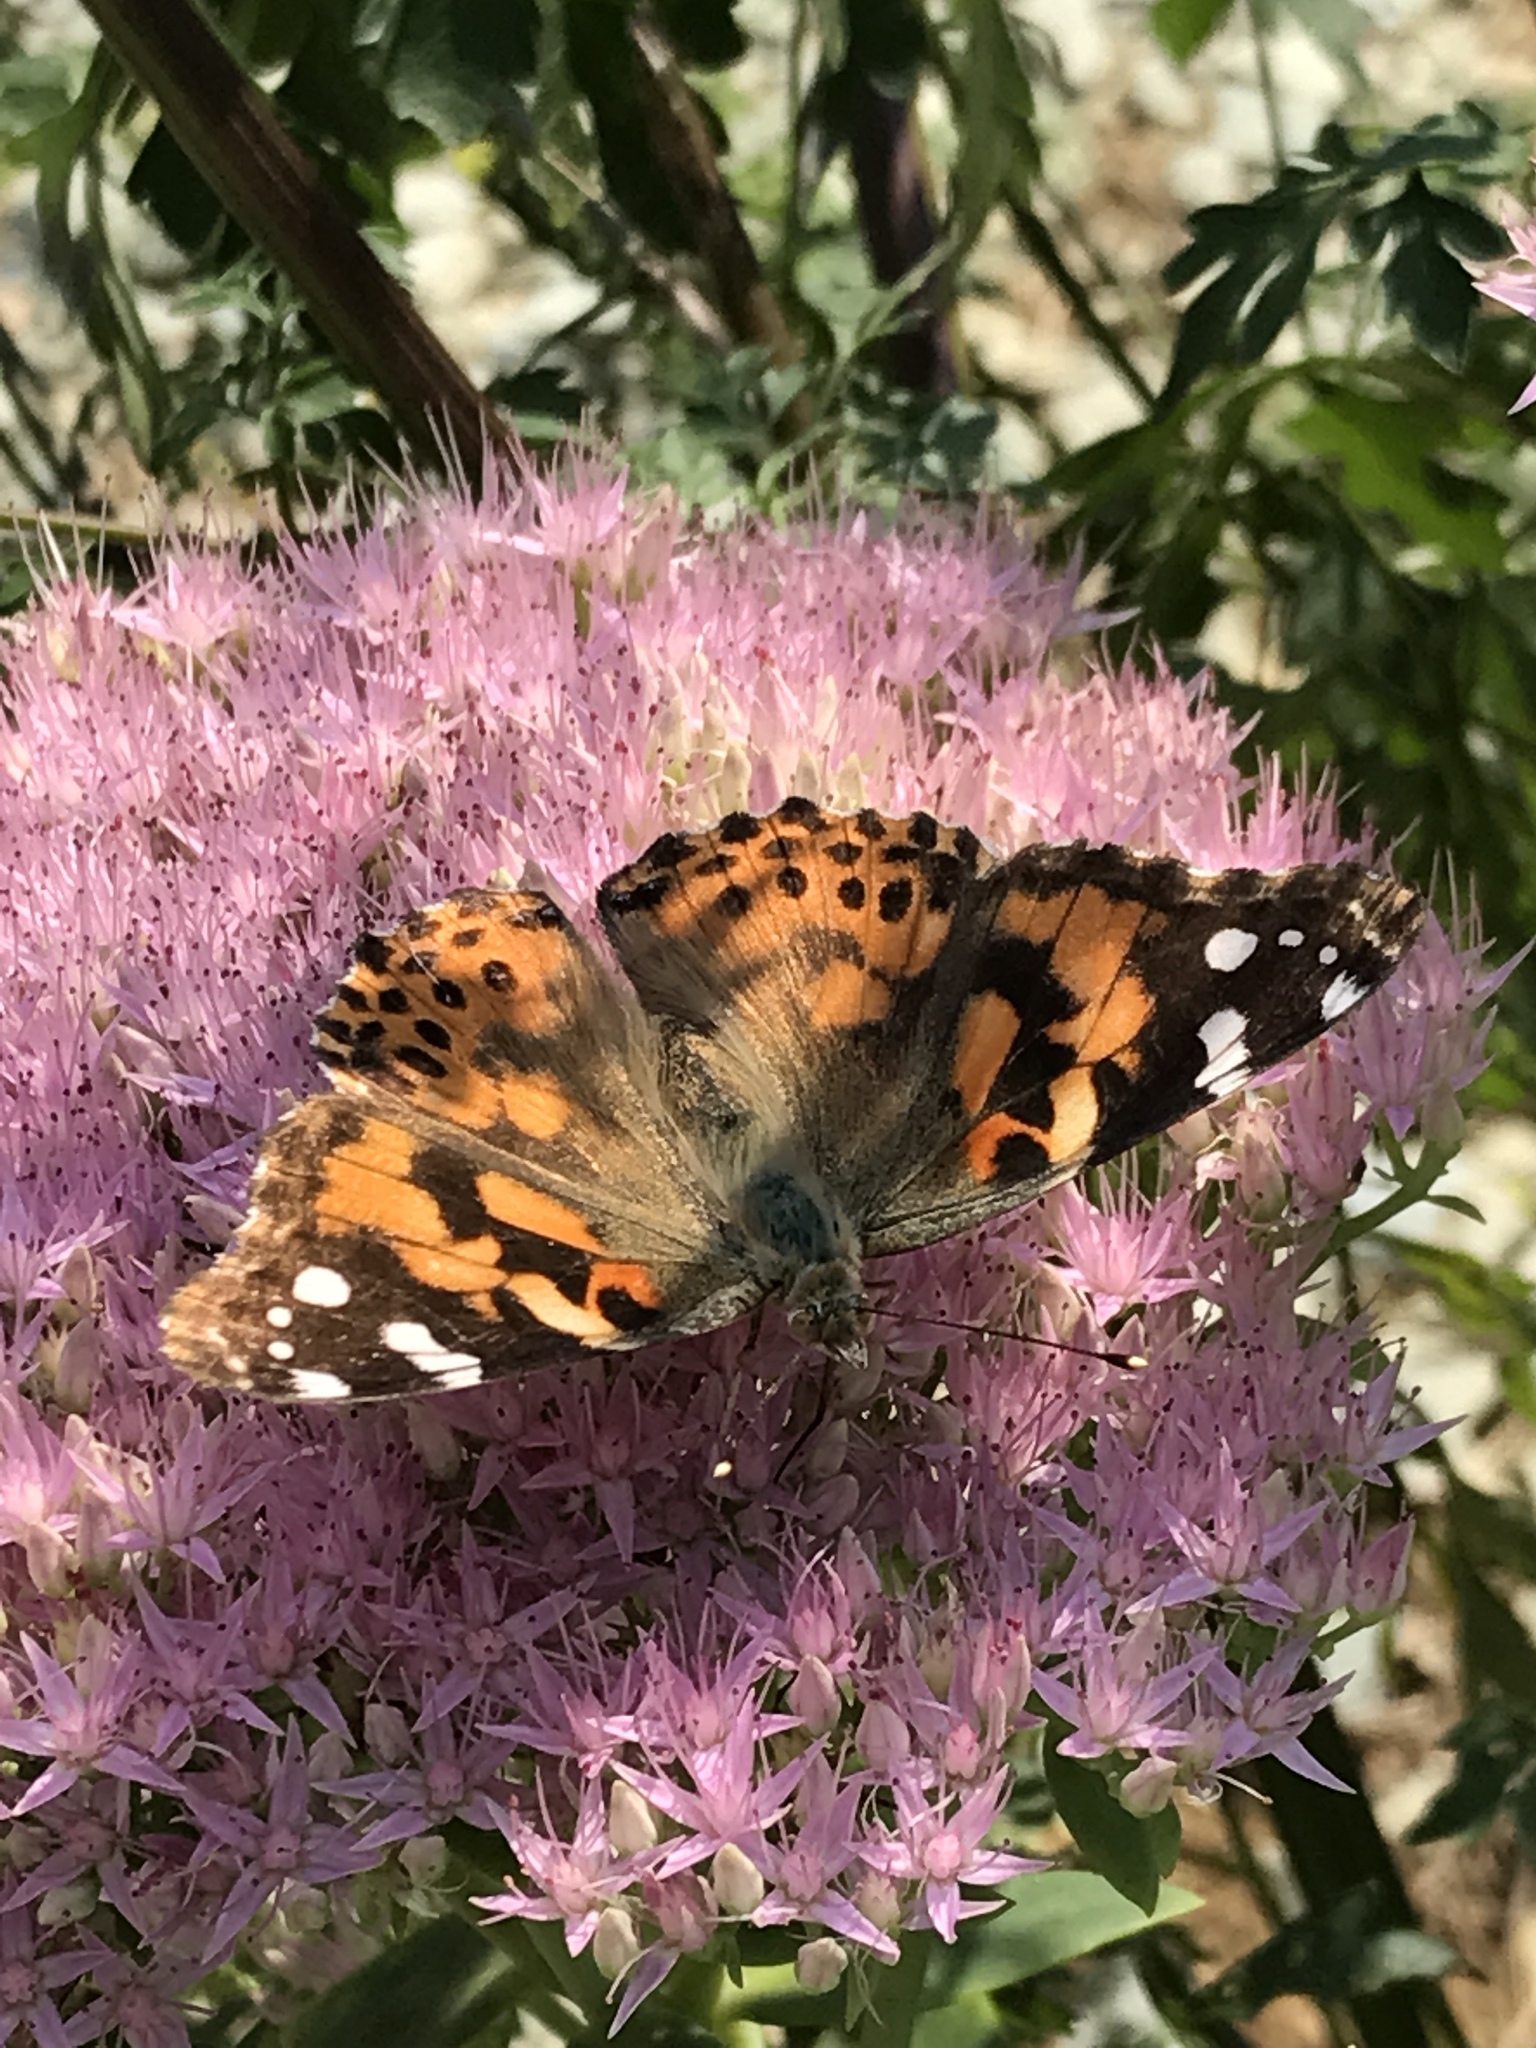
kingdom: Animalia
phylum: Arthropoda
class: Insecta
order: Lepidoptera
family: Nymphalidae
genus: Vanessa
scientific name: Vanessa cardui
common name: Painted lady
